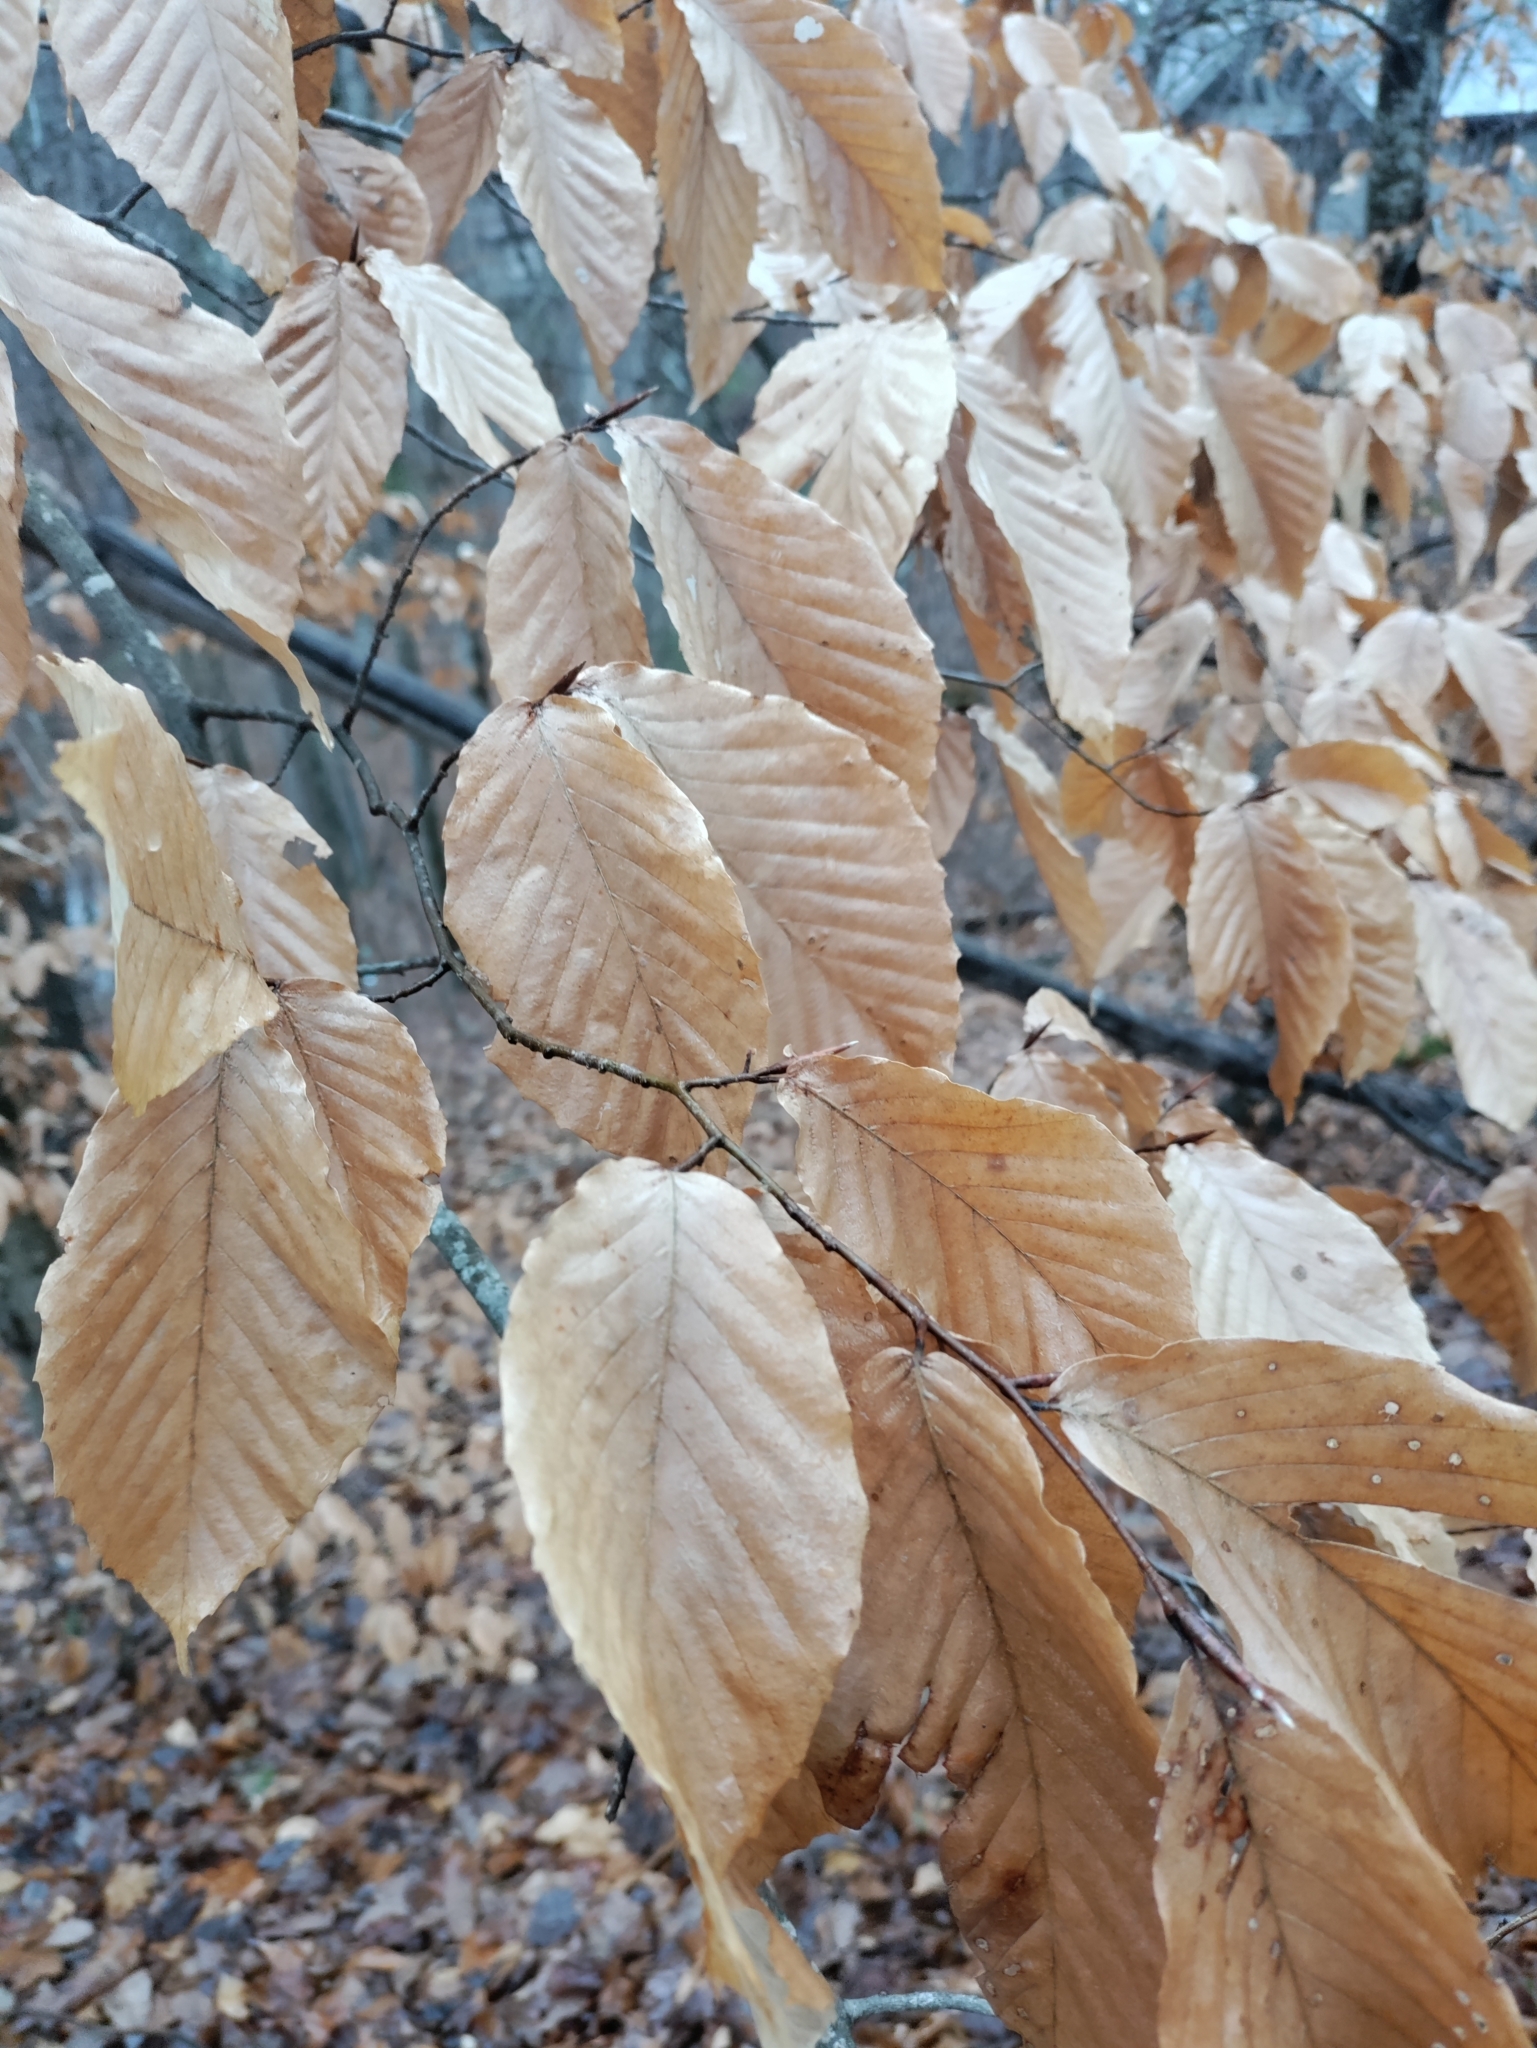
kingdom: Plantae
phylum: Tracheophyta
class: Magnoliopsida
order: Fagales
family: Fagaceae
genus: Fagus
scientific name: Fagus grandifolia
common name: American beech
